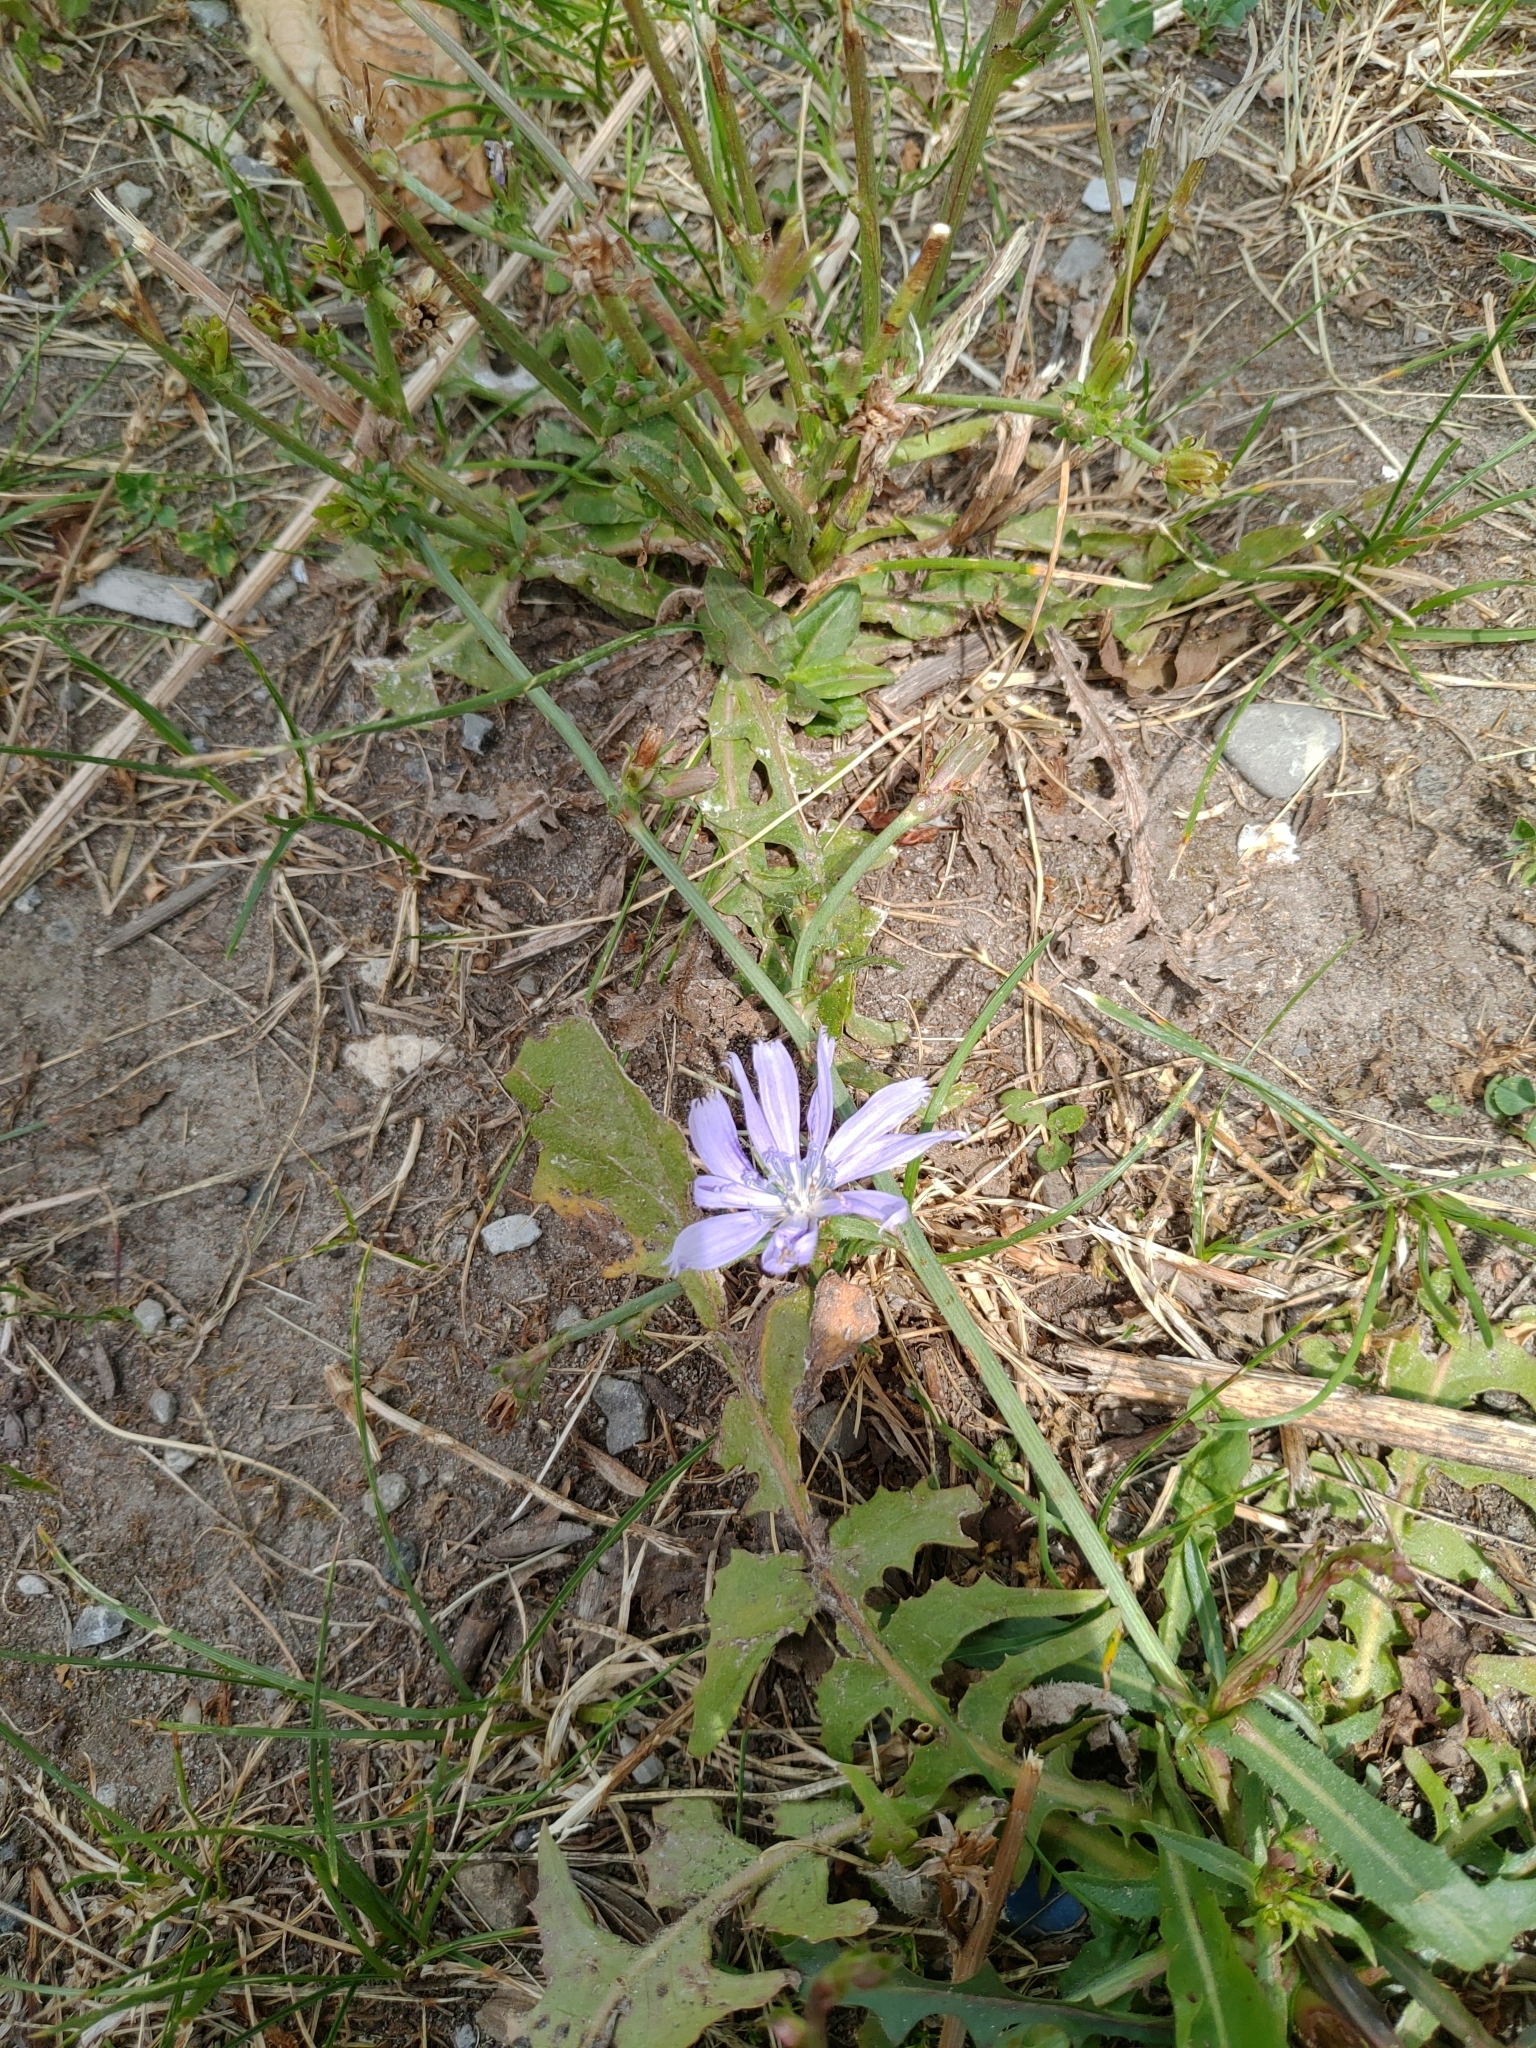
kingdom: Plantae
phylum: Tracheophyta
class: Magnoliopsida
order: Asterales
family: Asteraceae
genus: Cichorium
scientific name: Cichorium intybus
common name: Chicory
